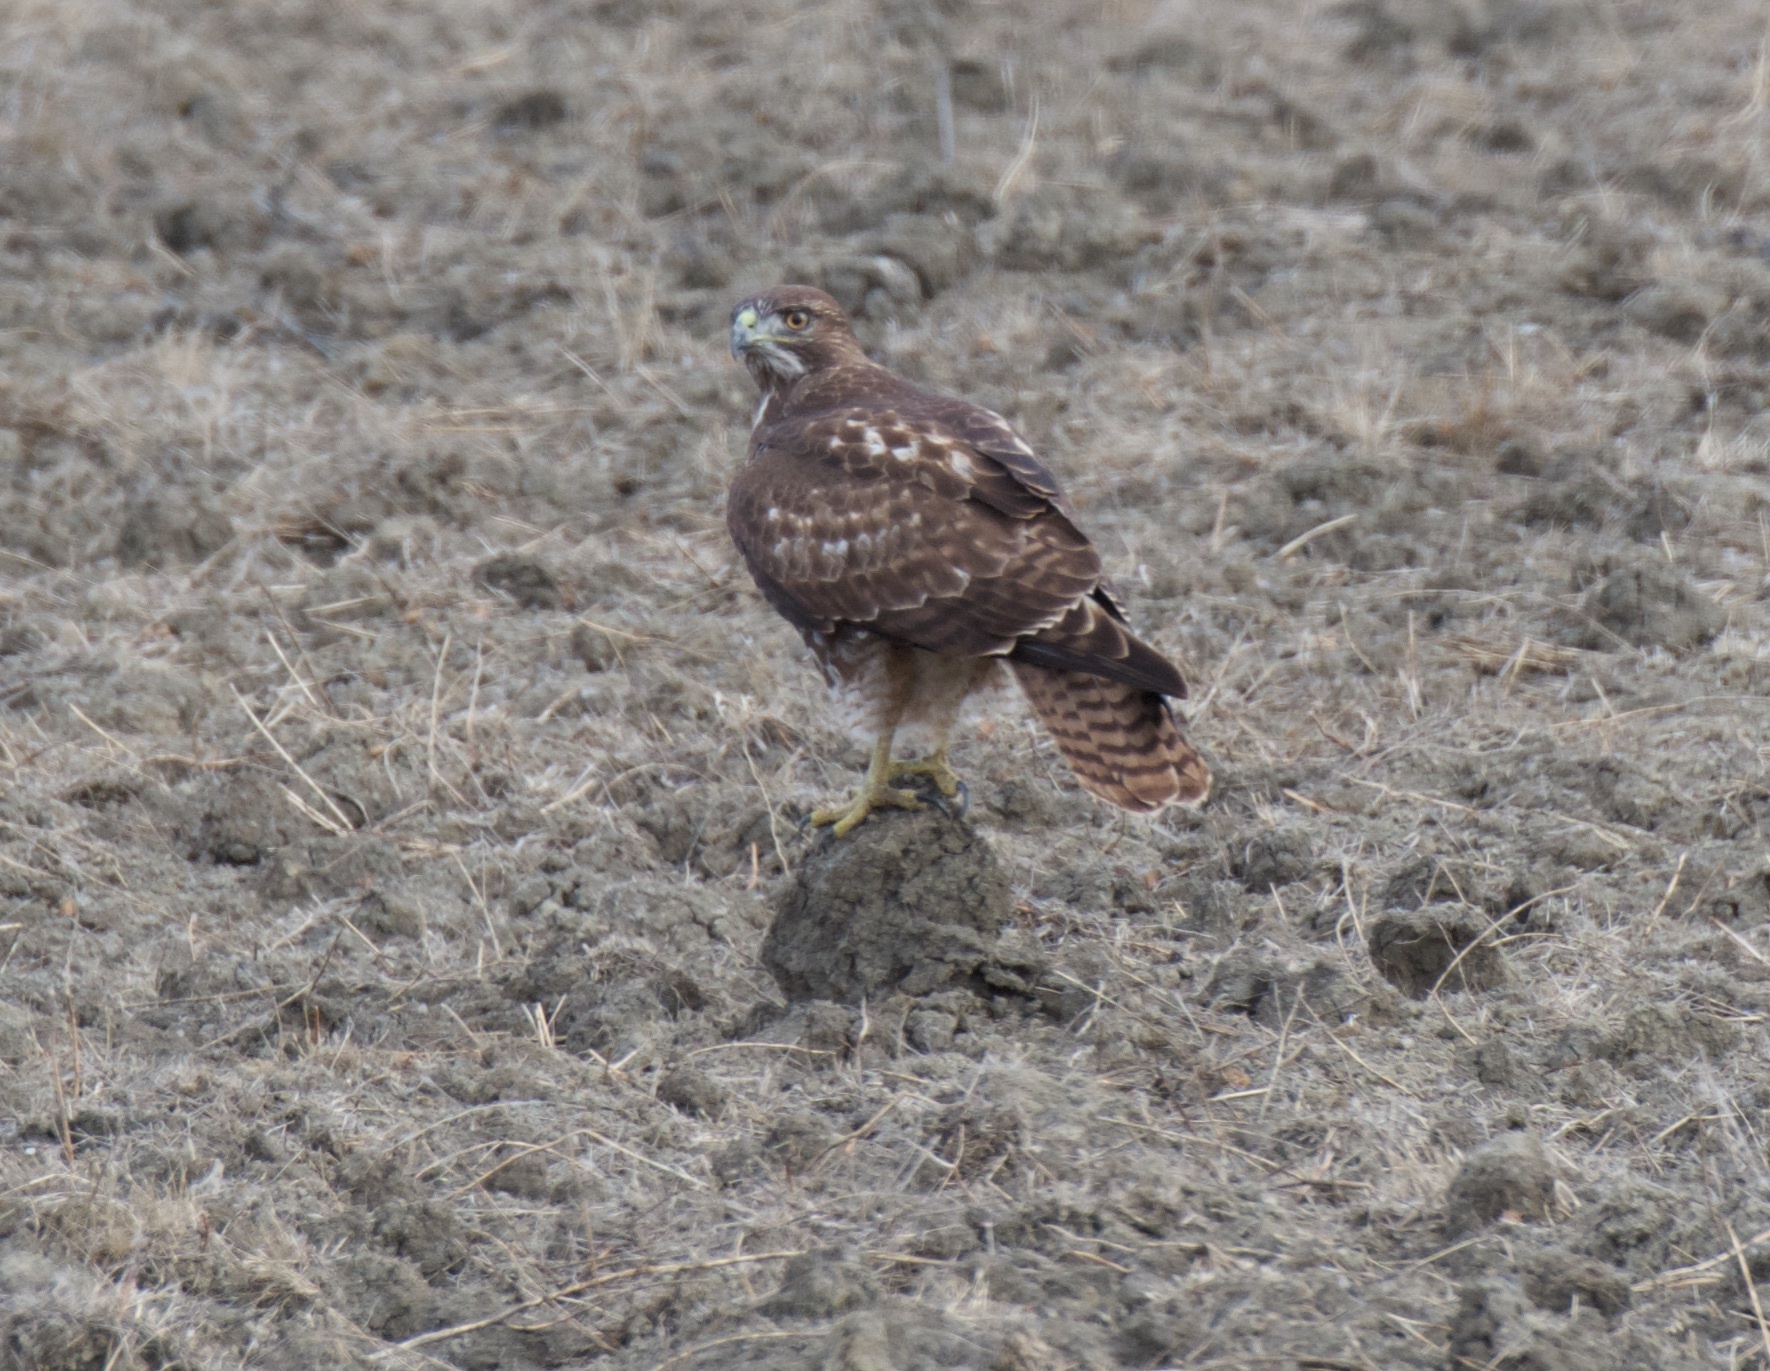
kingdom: Animalia
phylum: Chordata
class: Aves
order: Accipitriformes
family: Accipitridae
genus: Buteo
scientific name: Buteo jamaicensis
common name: Red-tailed hawk
